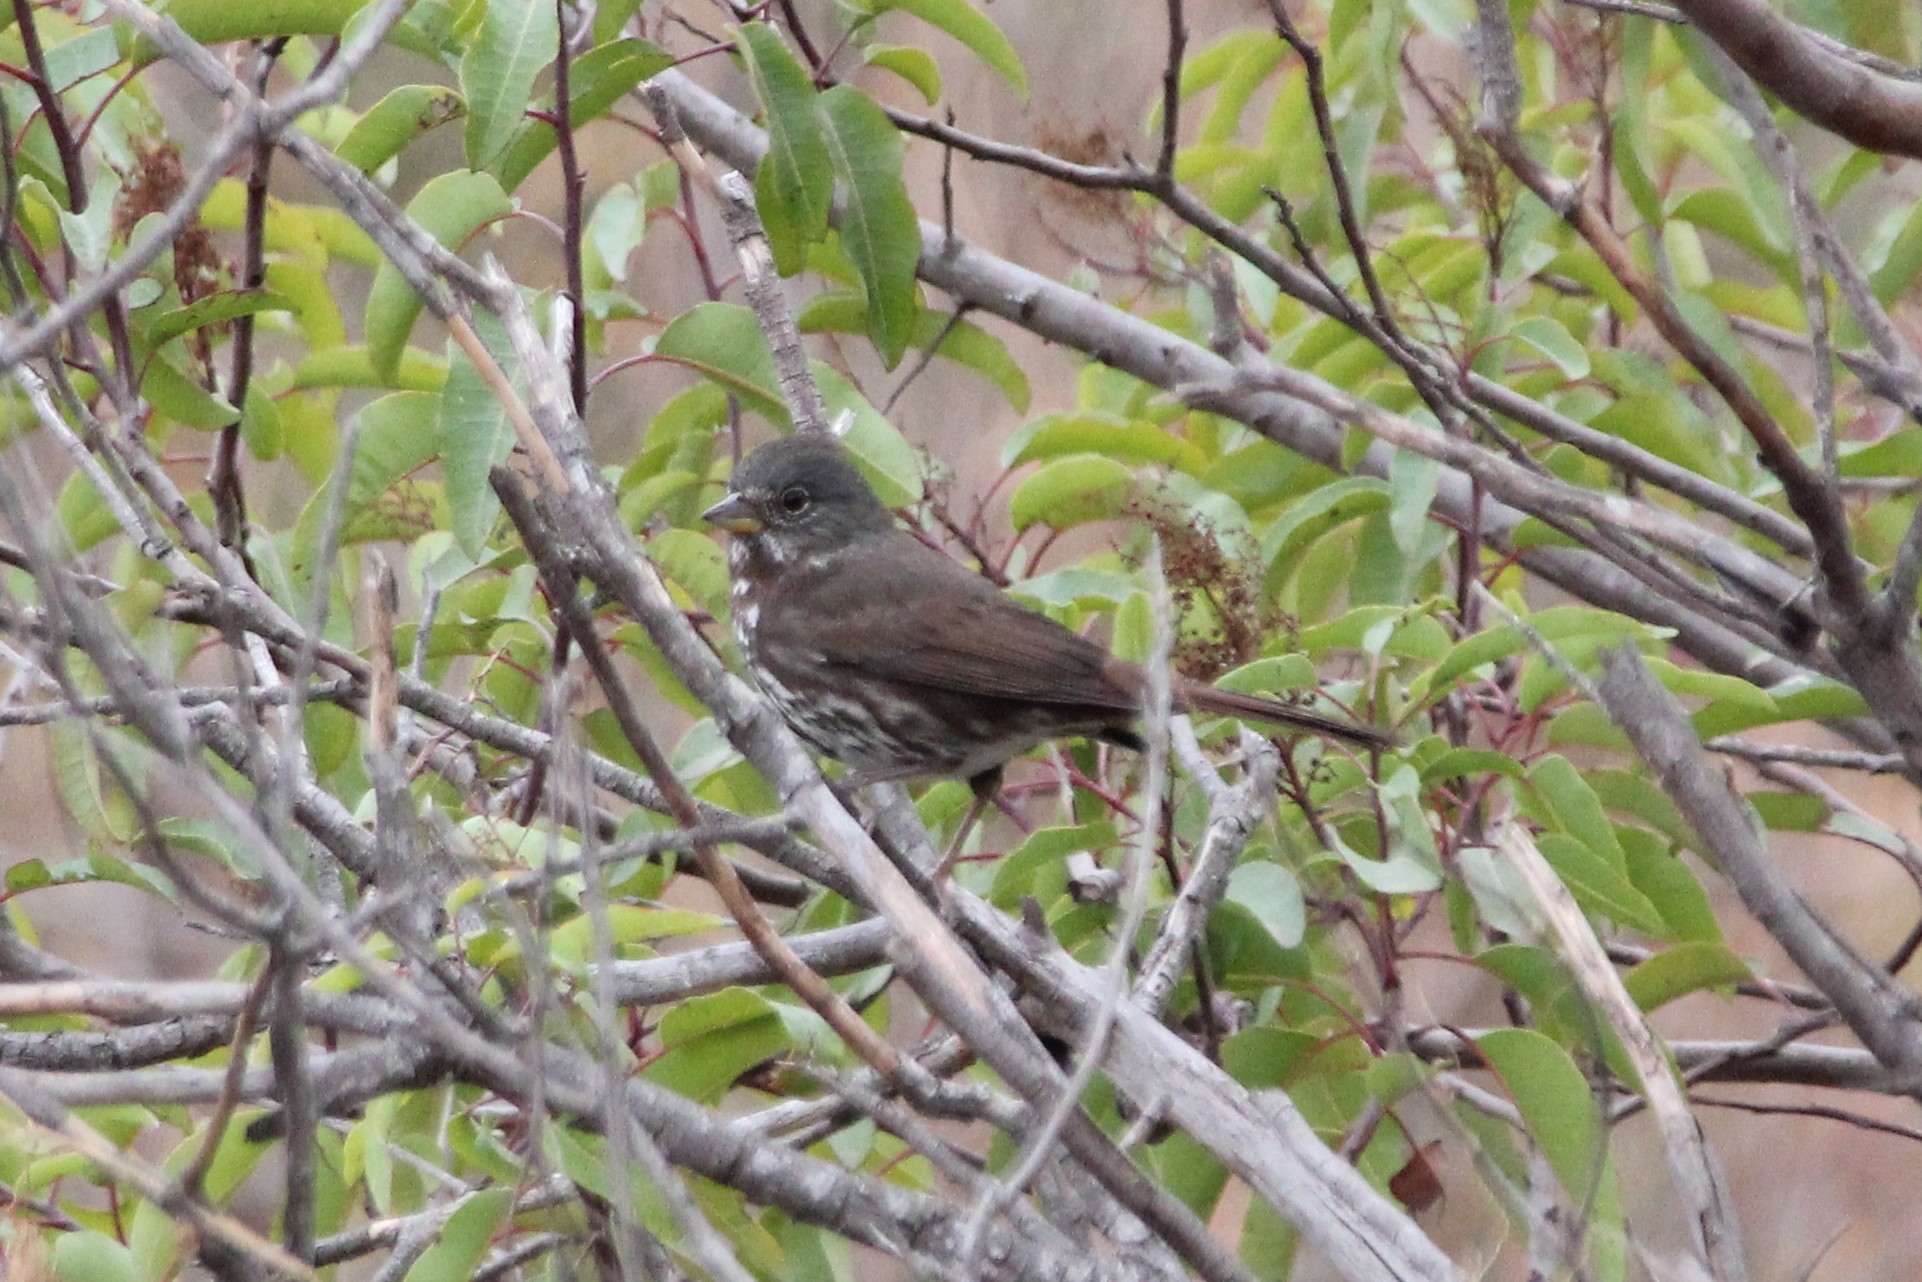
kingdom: Animalia
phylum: Chordata
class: Aves
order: Passeriformes
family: Passerellidae
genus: Passerella
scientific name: Passerella iliaca
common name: Fox sparrow
